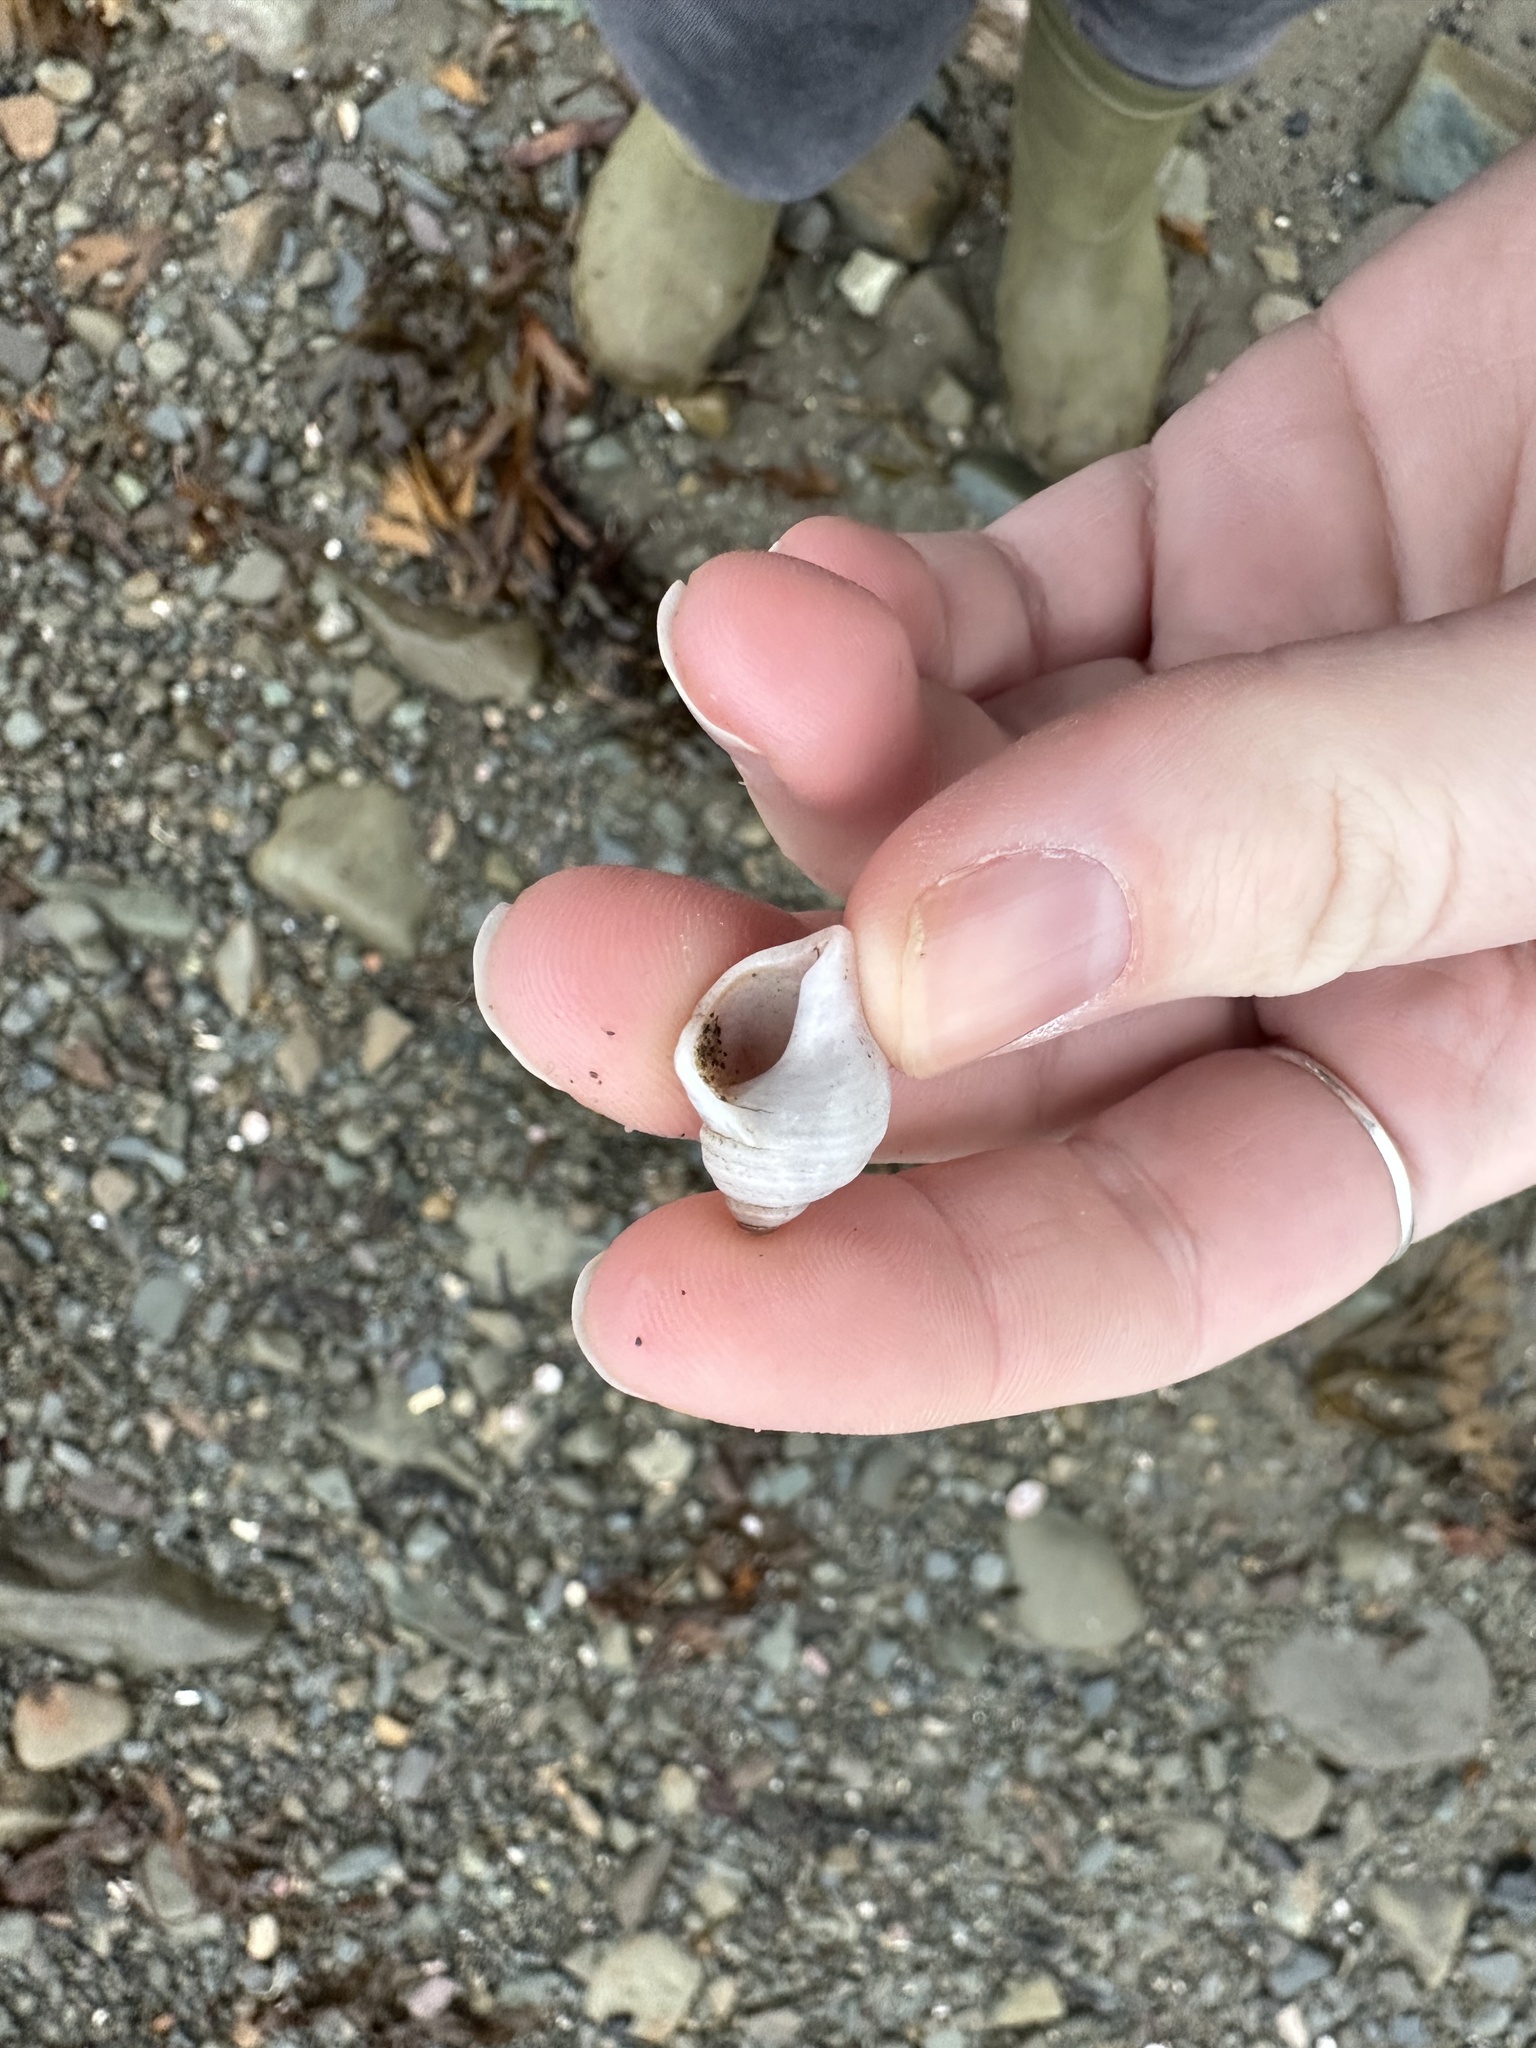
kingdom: Animalia
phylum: Mollusca
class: Gastropoda
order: Neogastropoda
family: Muricidae
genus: Nucella
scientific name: Nucella lapillus
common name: Dog whelk
